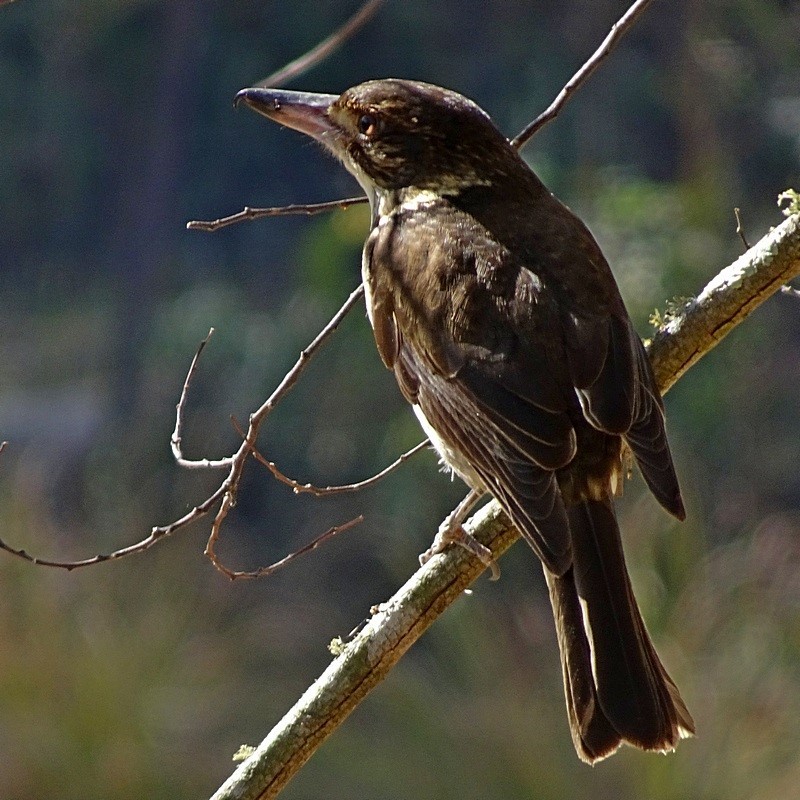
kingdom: Animalia
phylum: Chordata
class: Aves
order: Passeriformes
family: Cracticidae
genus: Cracticus
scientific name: Cracticus torquatus
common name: Grey butcherbird
